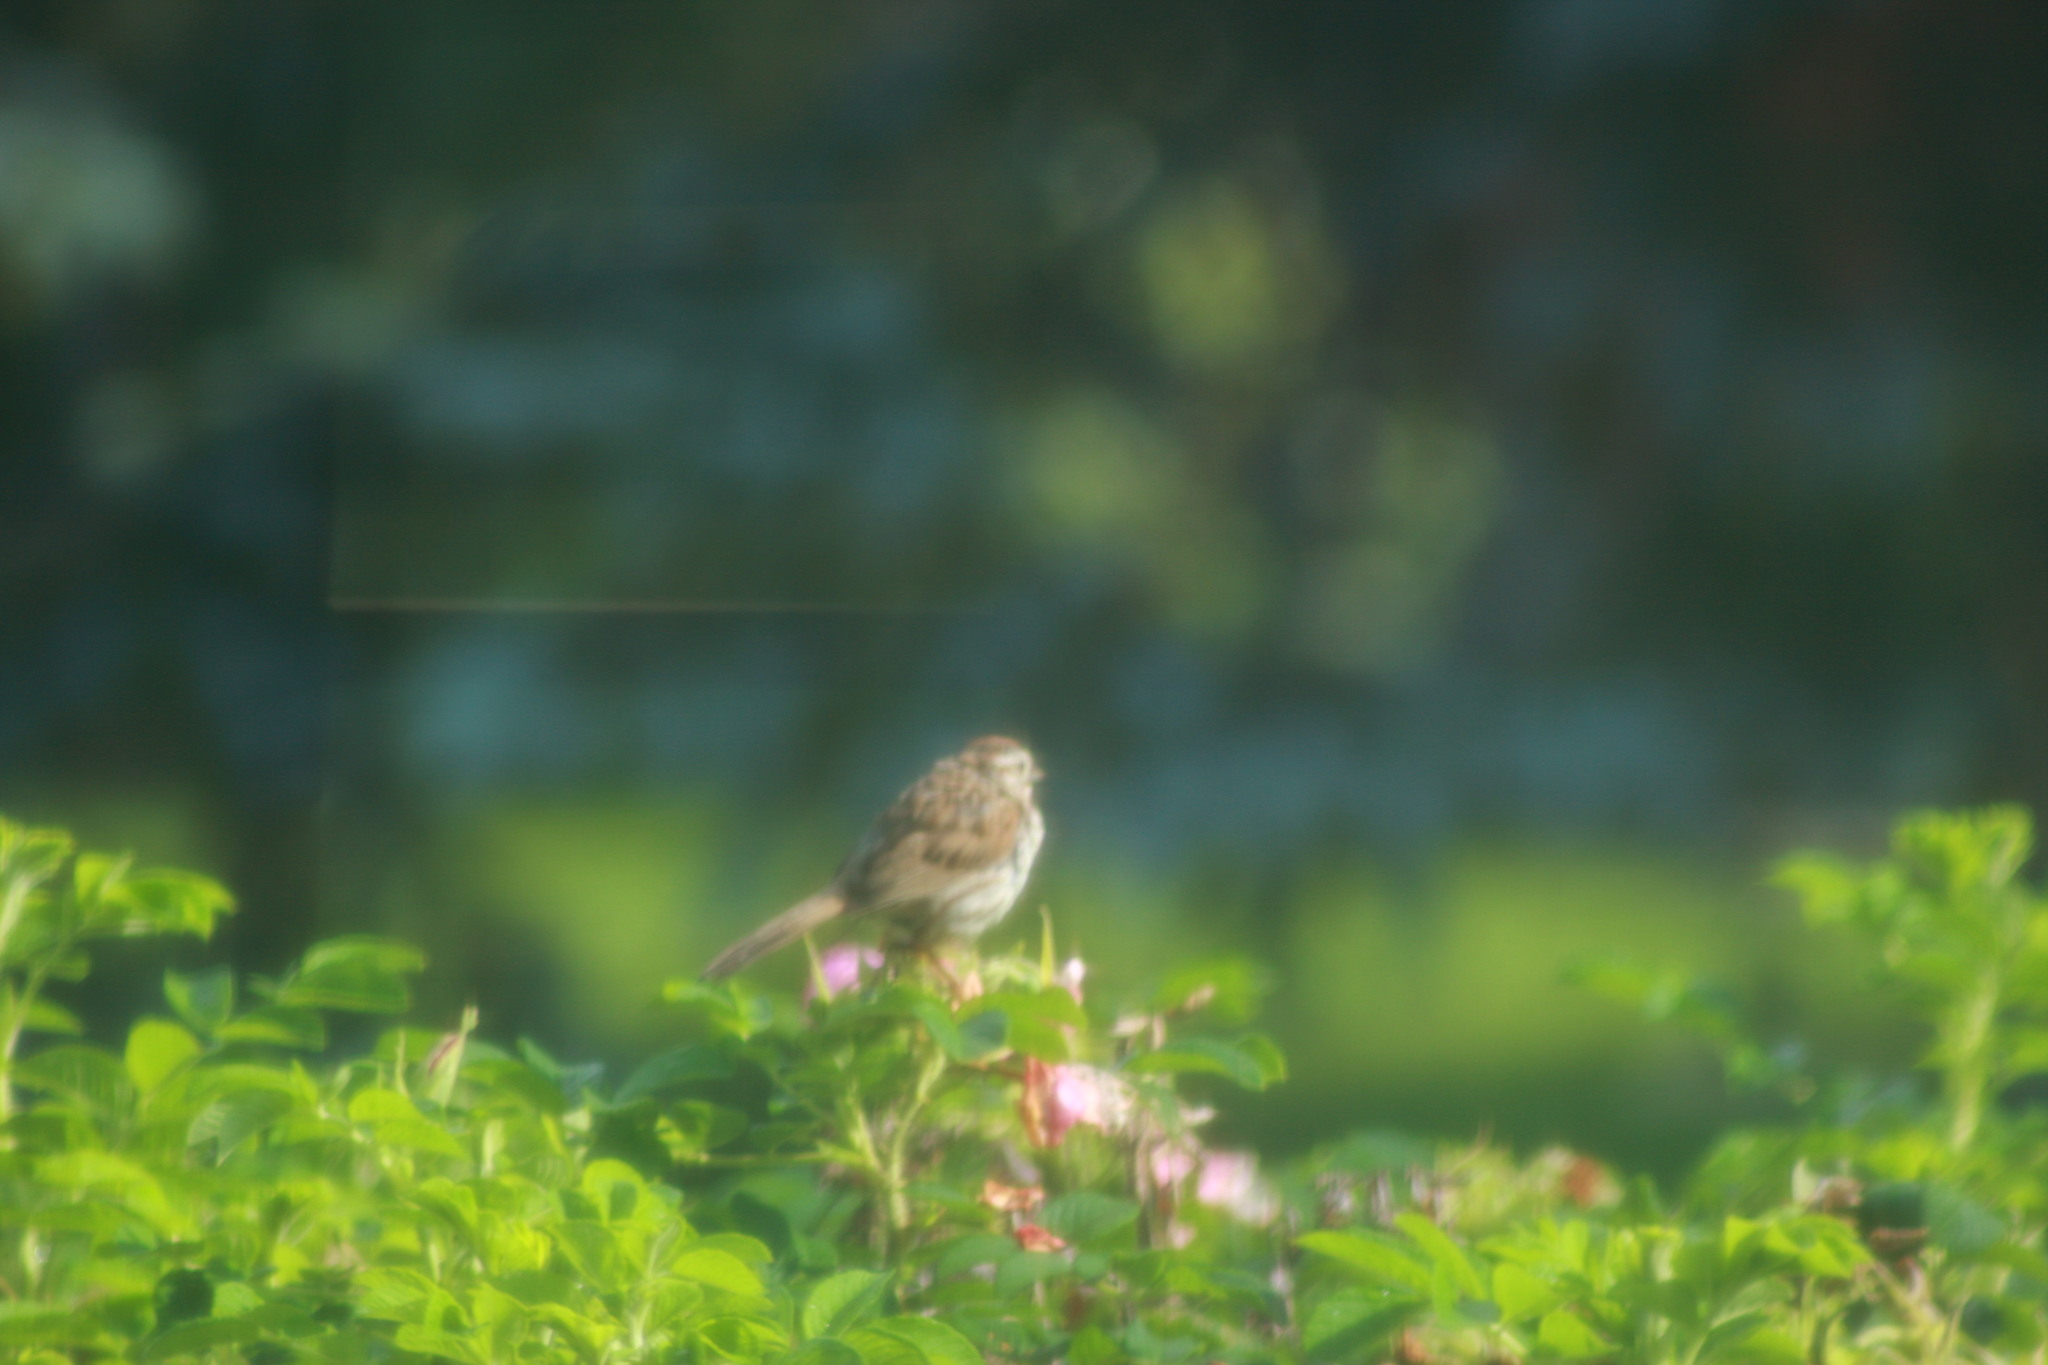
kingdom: Animalia
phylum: Chordata
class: Aves
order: Passeriformes
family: Passerellidae
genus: Melospiza
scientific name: Melospiza melodia
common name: Song sparrow
